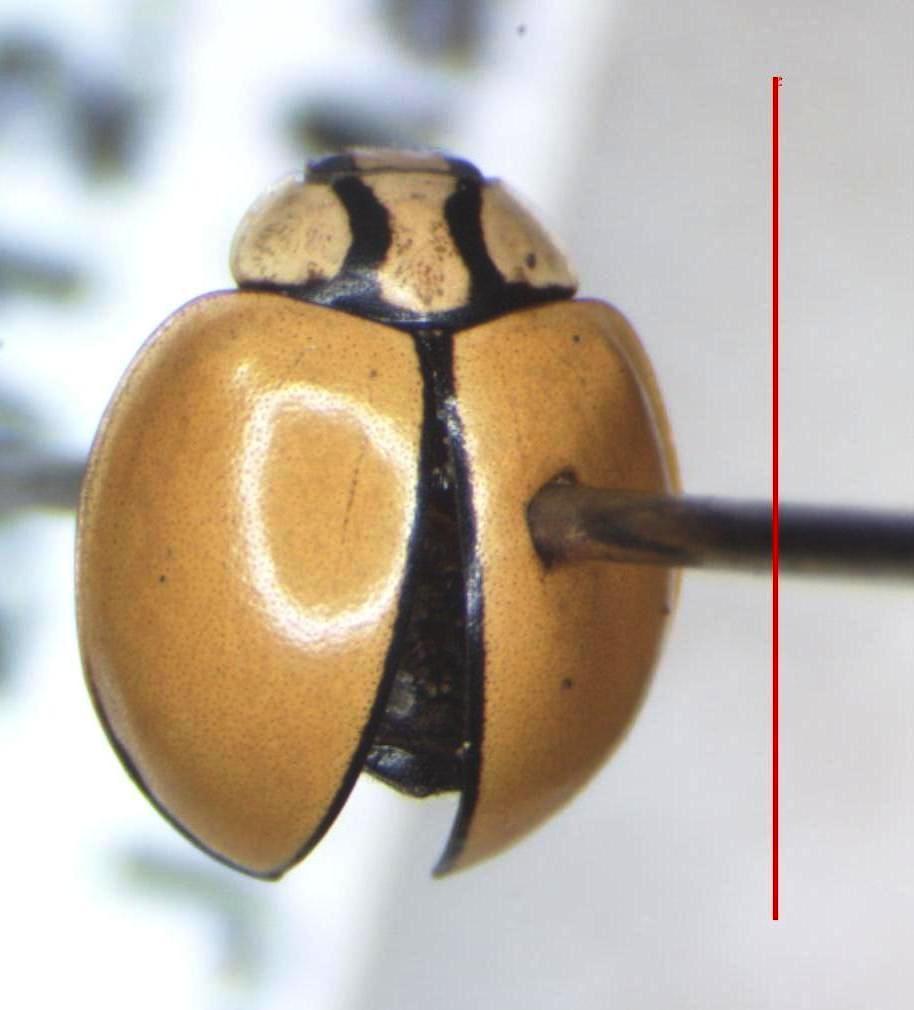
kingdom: Animalia
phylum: Arthropoda
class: Insecta
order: Coleoptera
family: Coccinellidae
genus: Coccinella
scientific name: Coccinella
